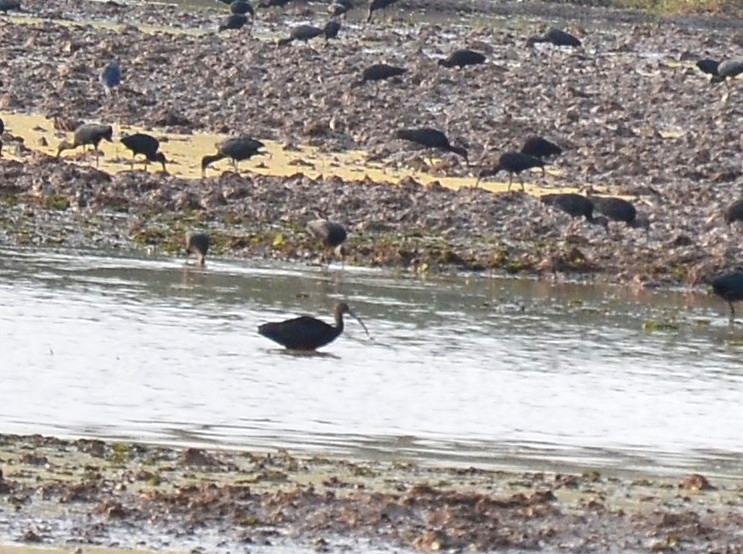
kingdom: Animalia
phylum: Chordata
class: Aves
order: Pelecaniformes
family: Threskiornithidae
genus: Plegadis
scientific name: Plegadis falcinellus
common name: Glossy ibis
